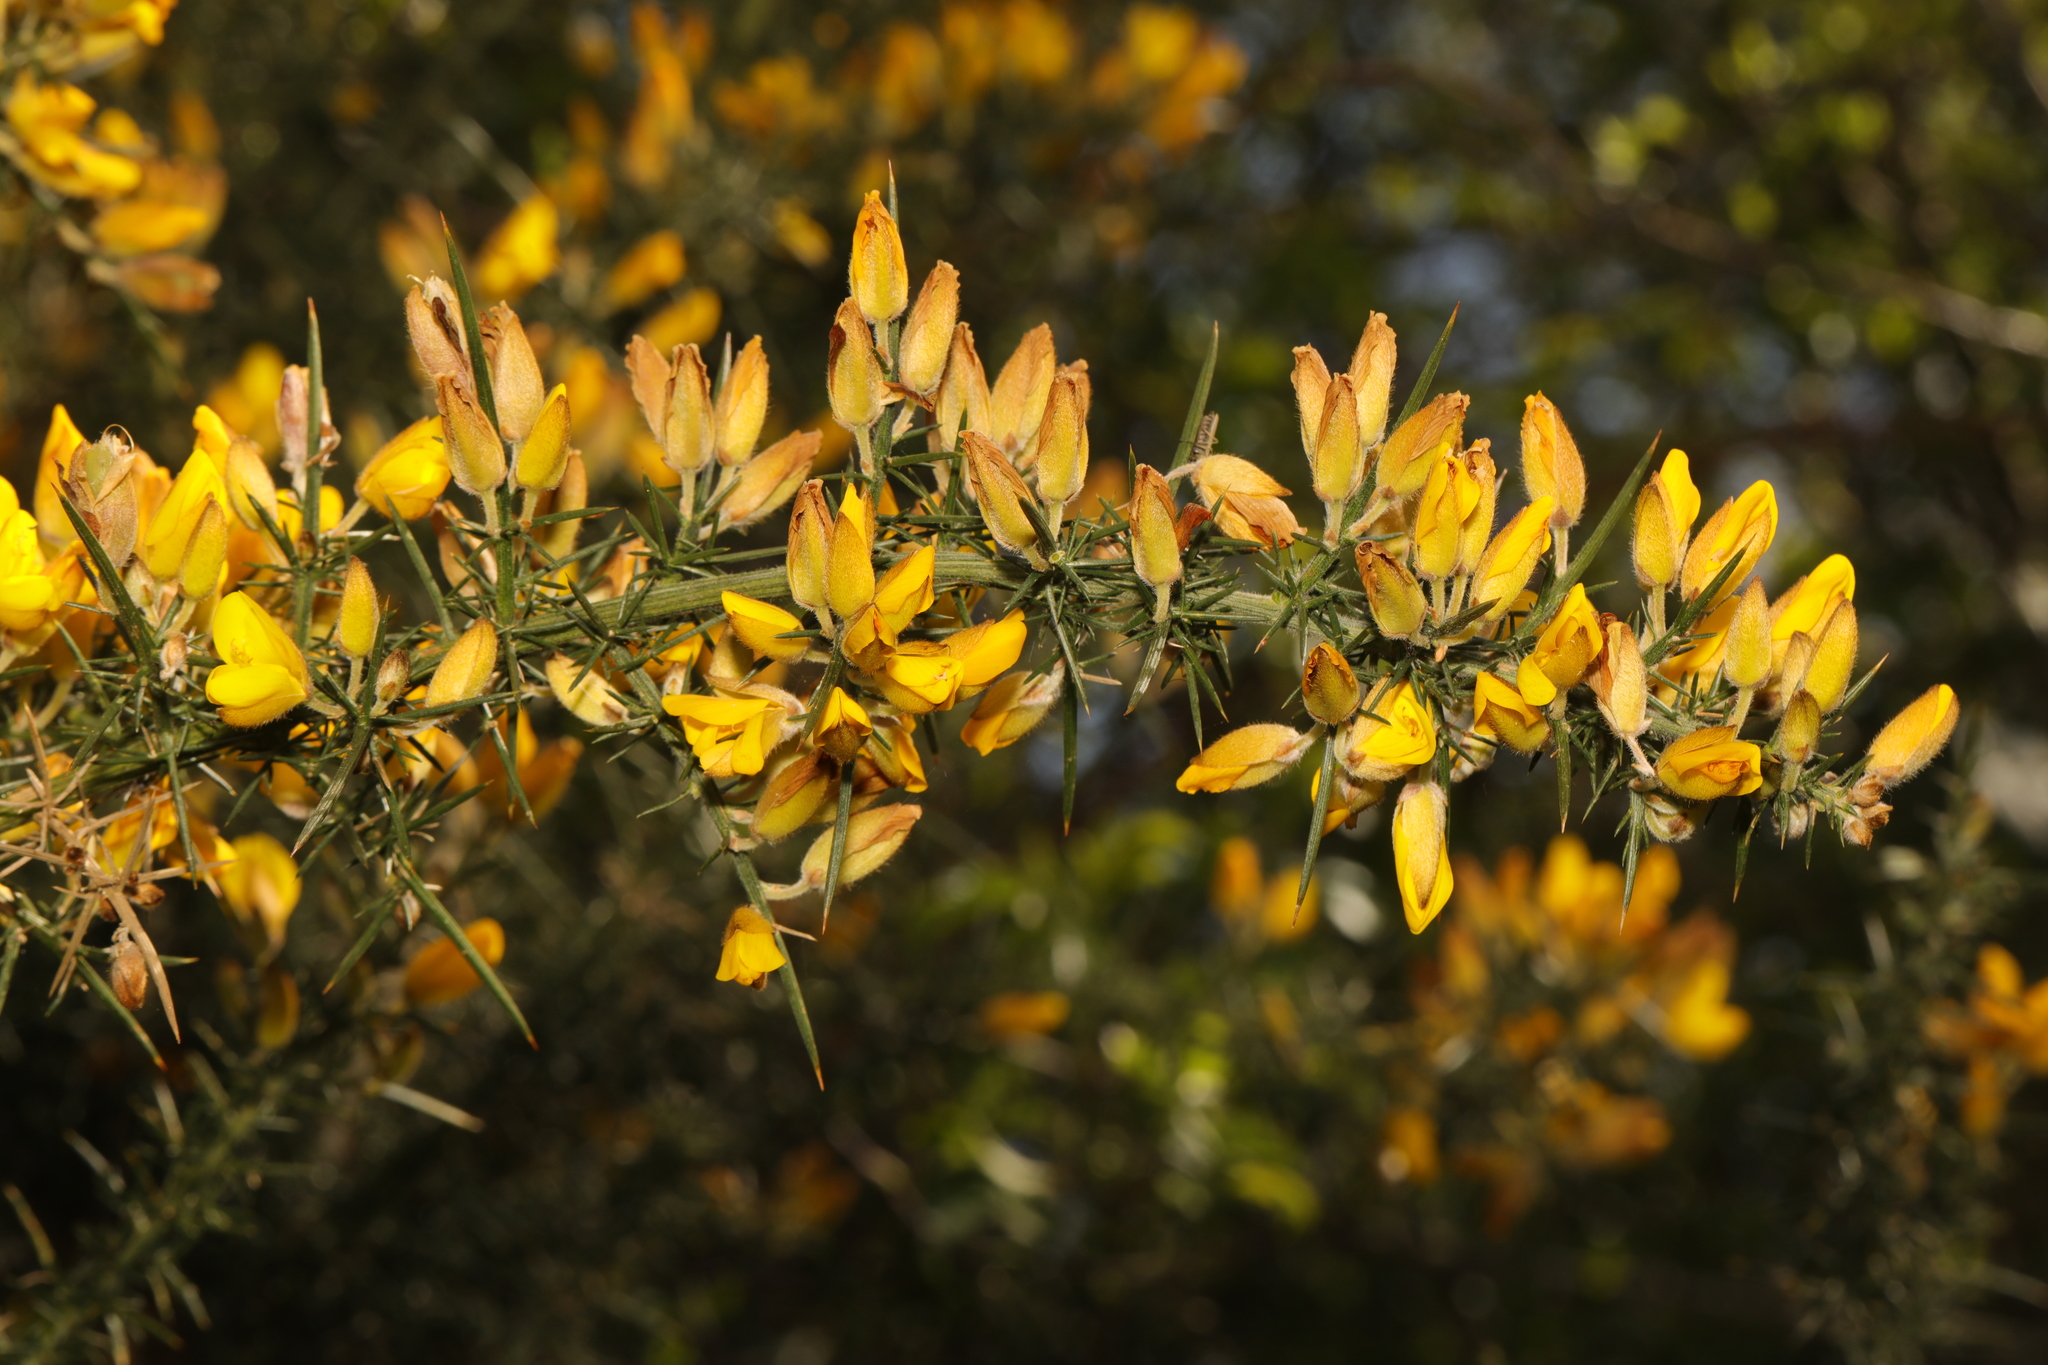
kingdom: Plantae
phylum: Tracheophyta
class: Magnoliopsida
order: Fabales
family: Fabaceae
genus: Ulex
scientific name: Ulex europaeus
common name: Common gorse
